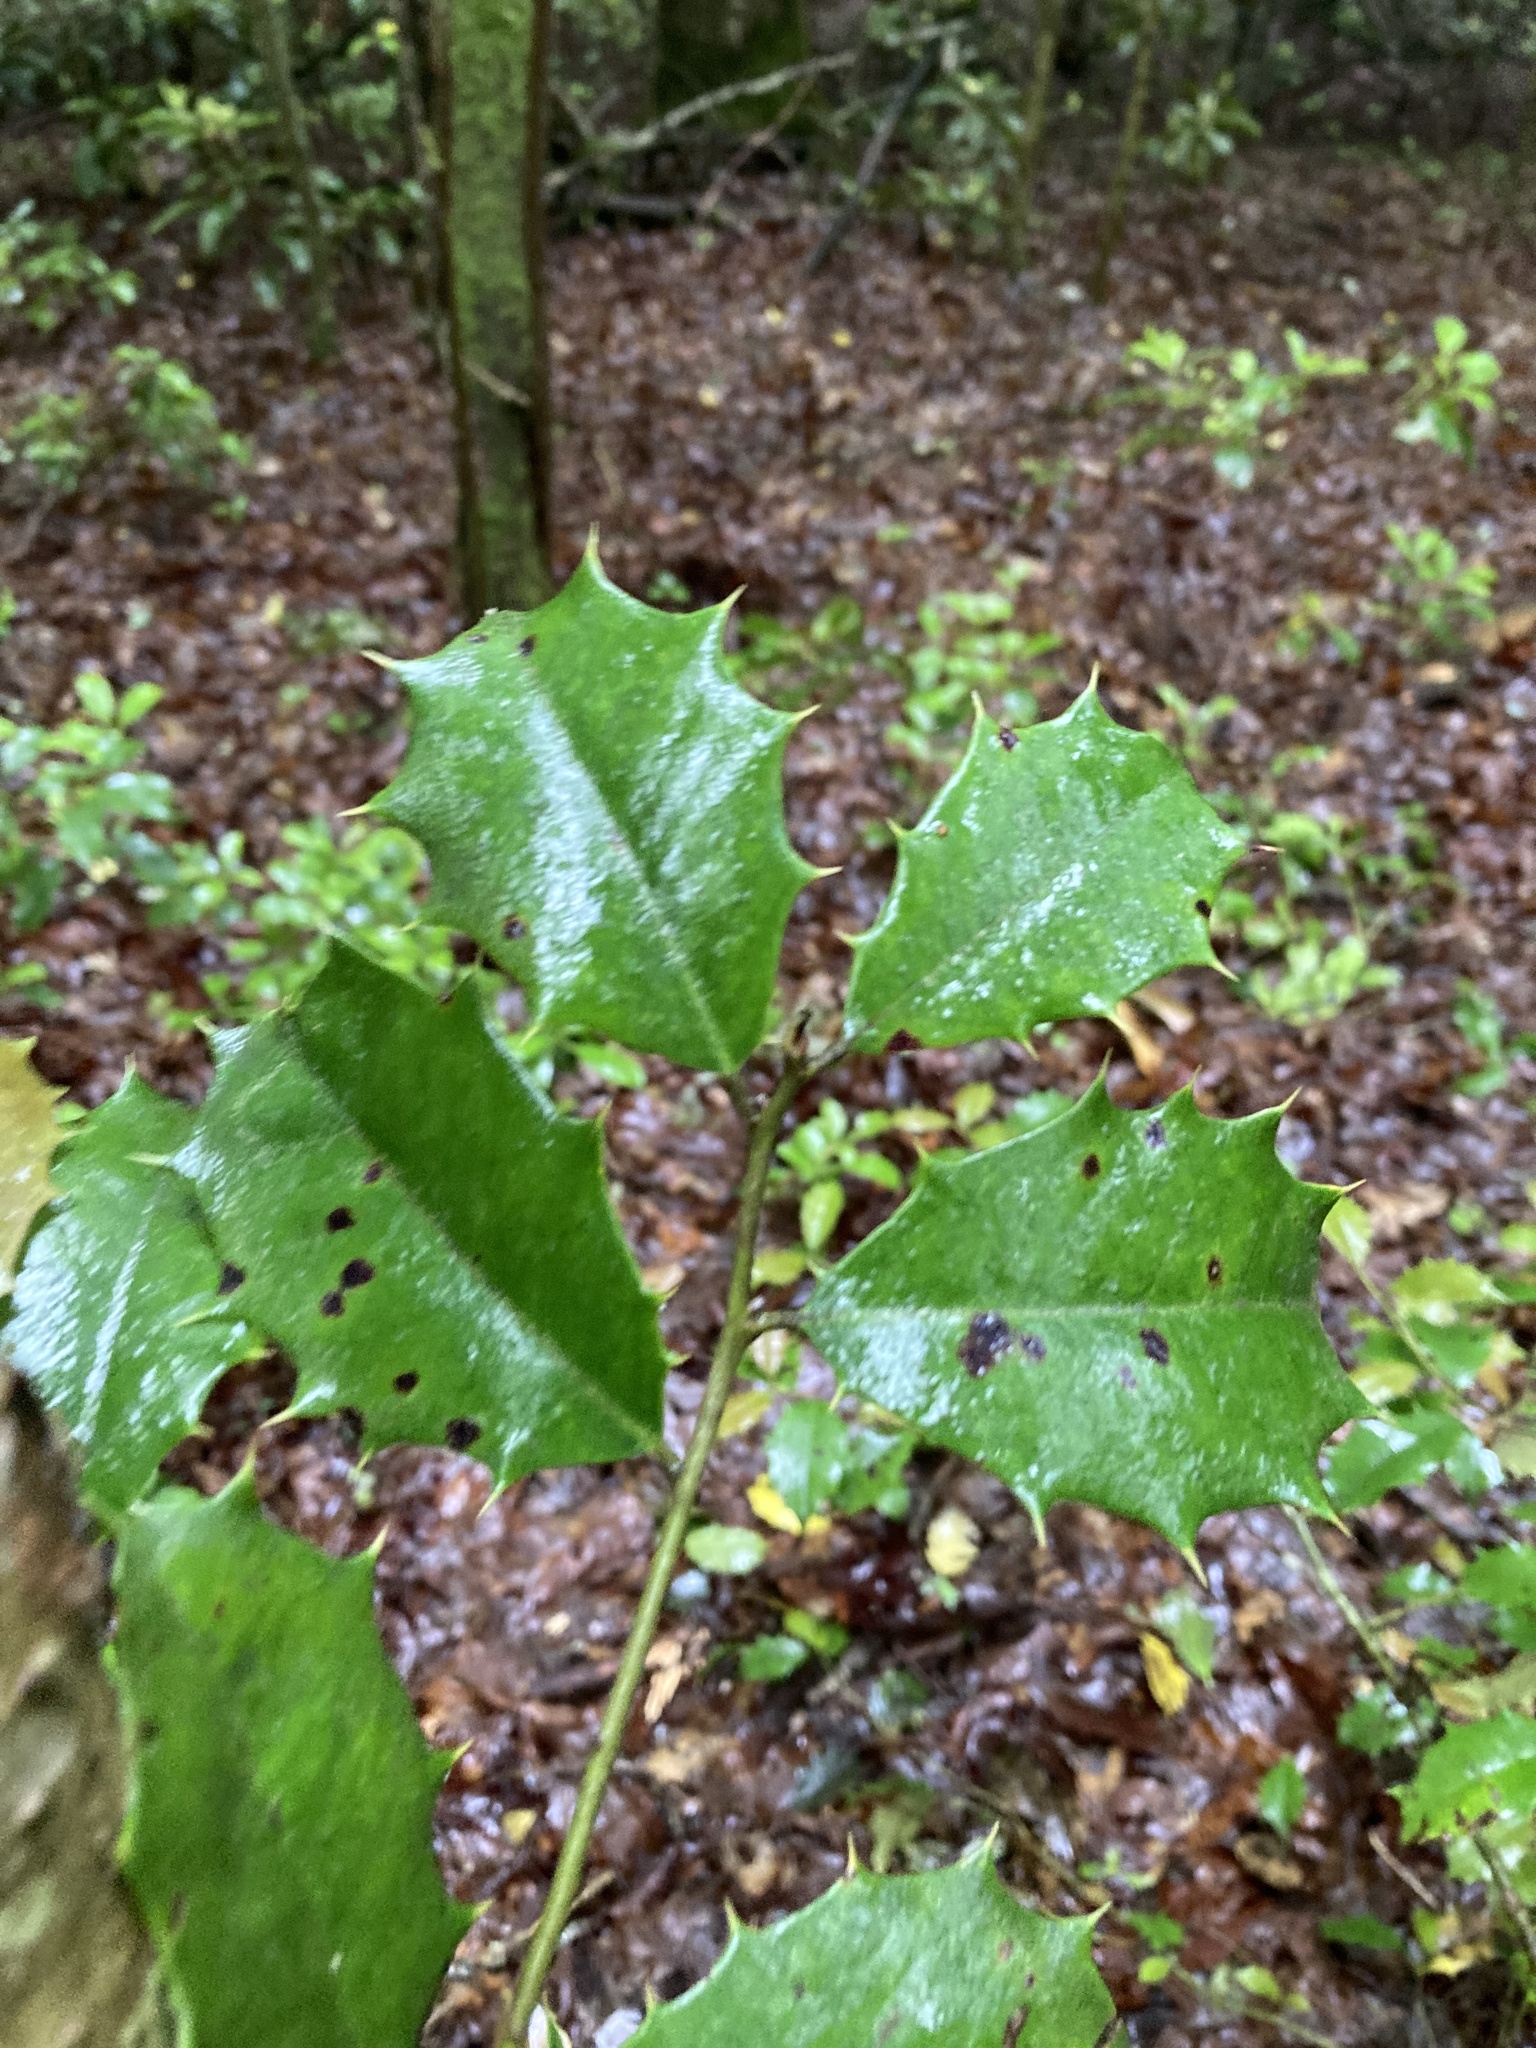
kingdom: Plantae
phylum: Tracheophyta
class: Magnoliopsida
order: Aquifoliales
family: Aquifoliaceae
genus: Ilex
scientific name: Ilex opaca
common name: American holly
